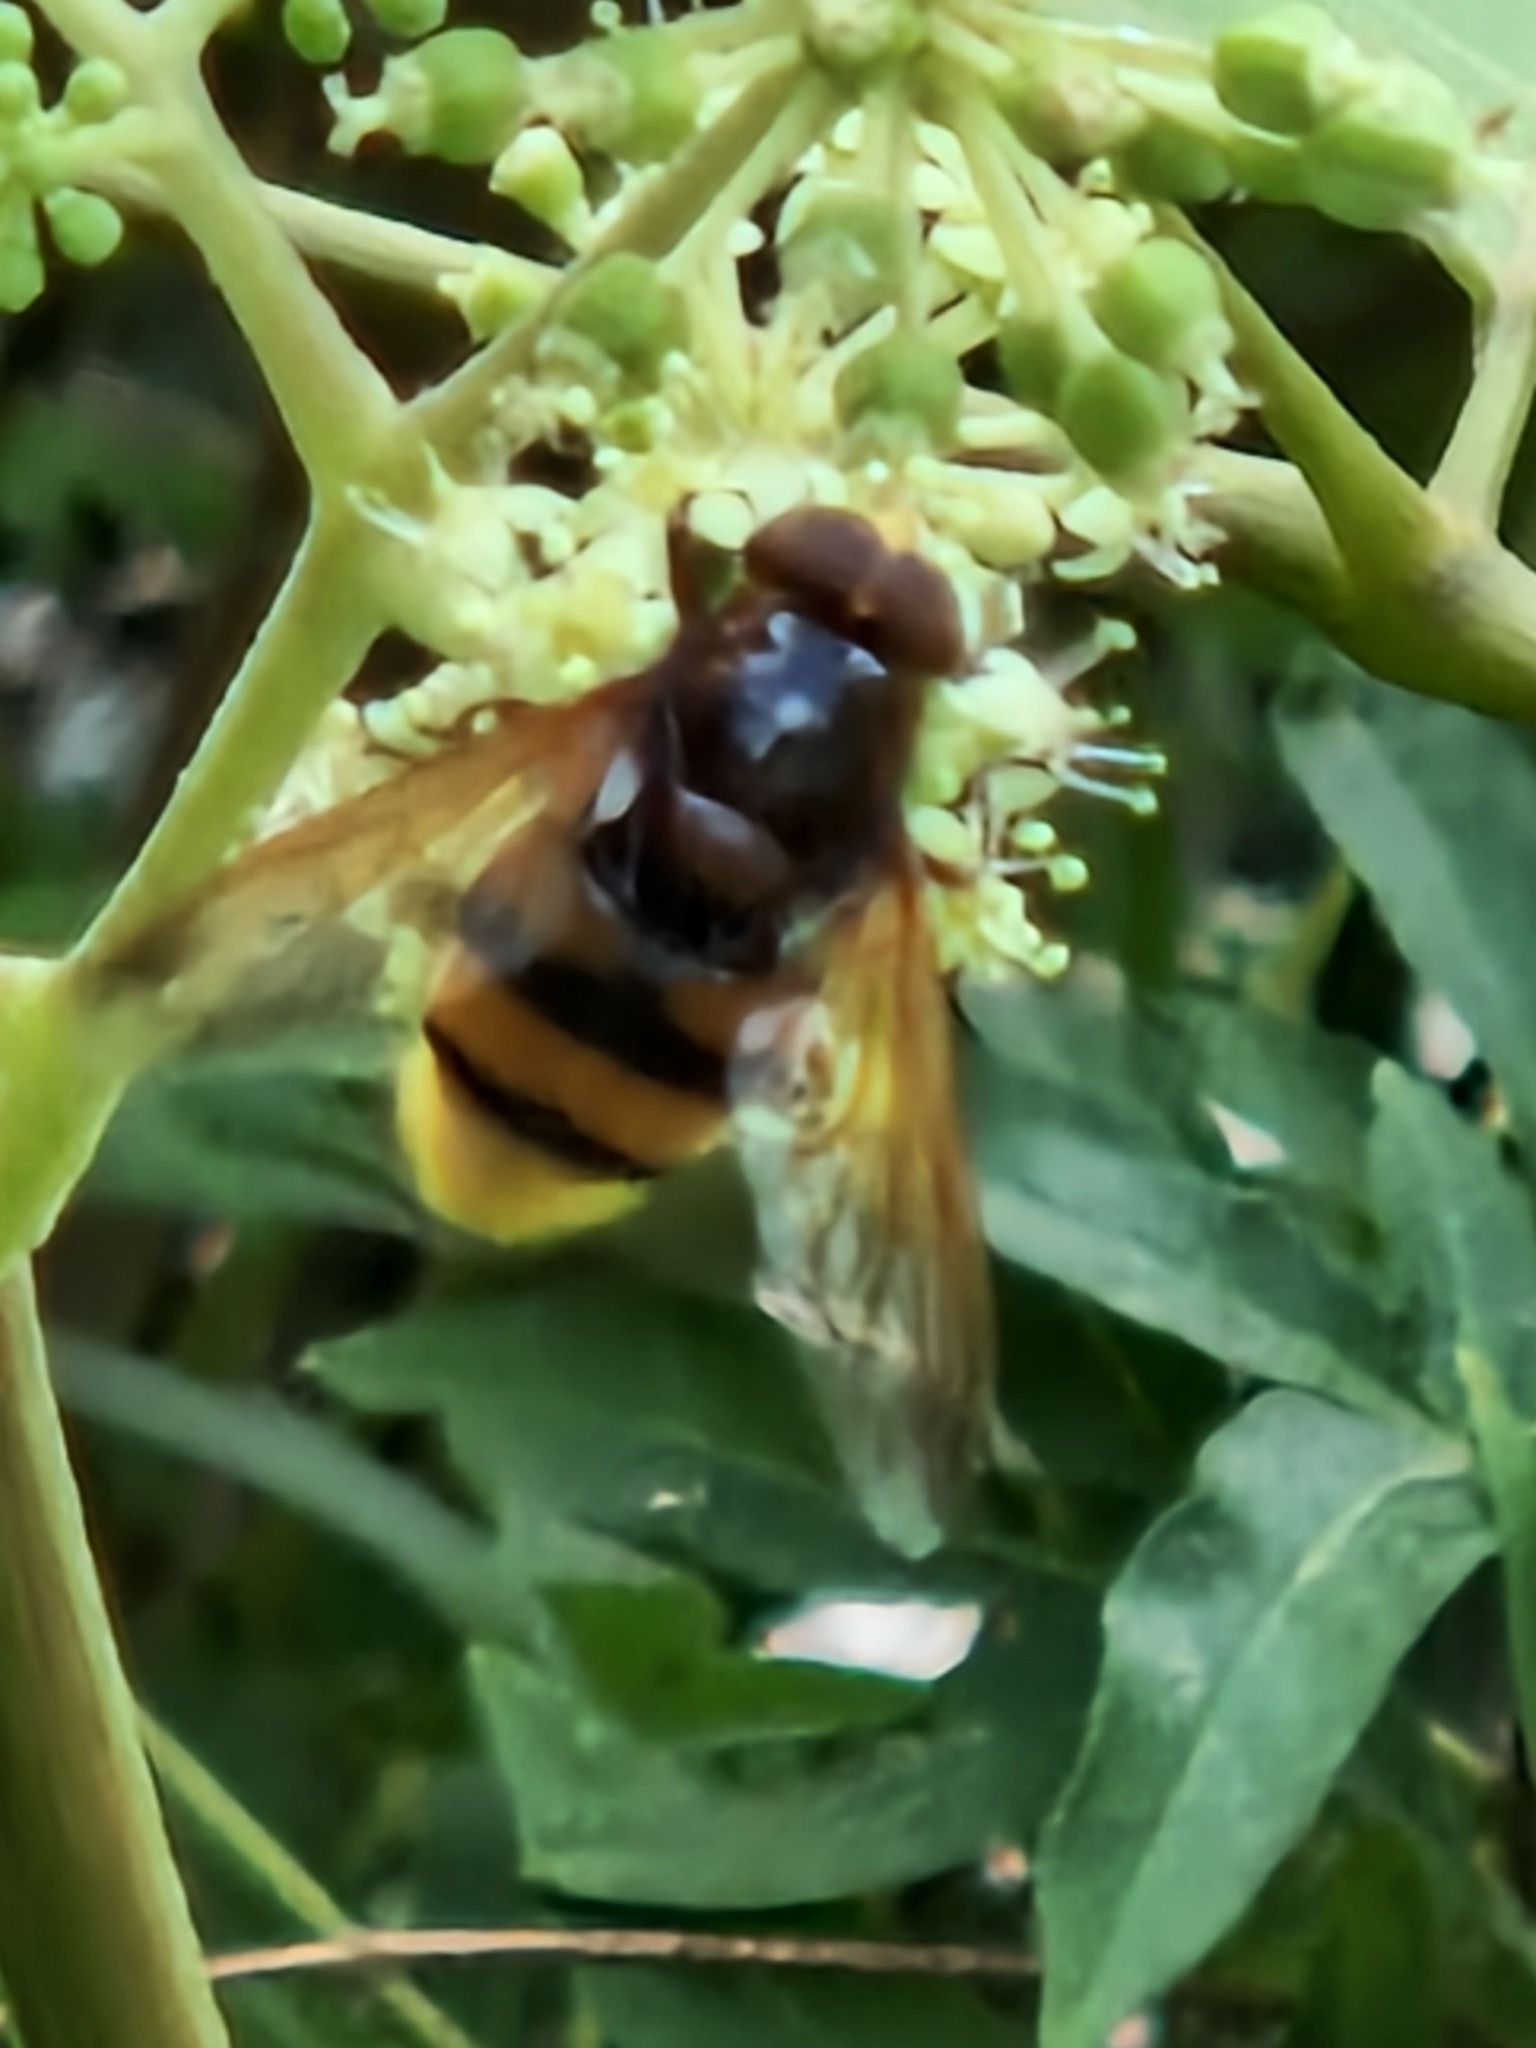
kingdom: Animalia
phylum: Arthropoda
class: Insecta
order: Diptera
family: Syrphidae
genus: Volucella
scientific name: Volucella zonaria
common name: Hornet hoverfly
